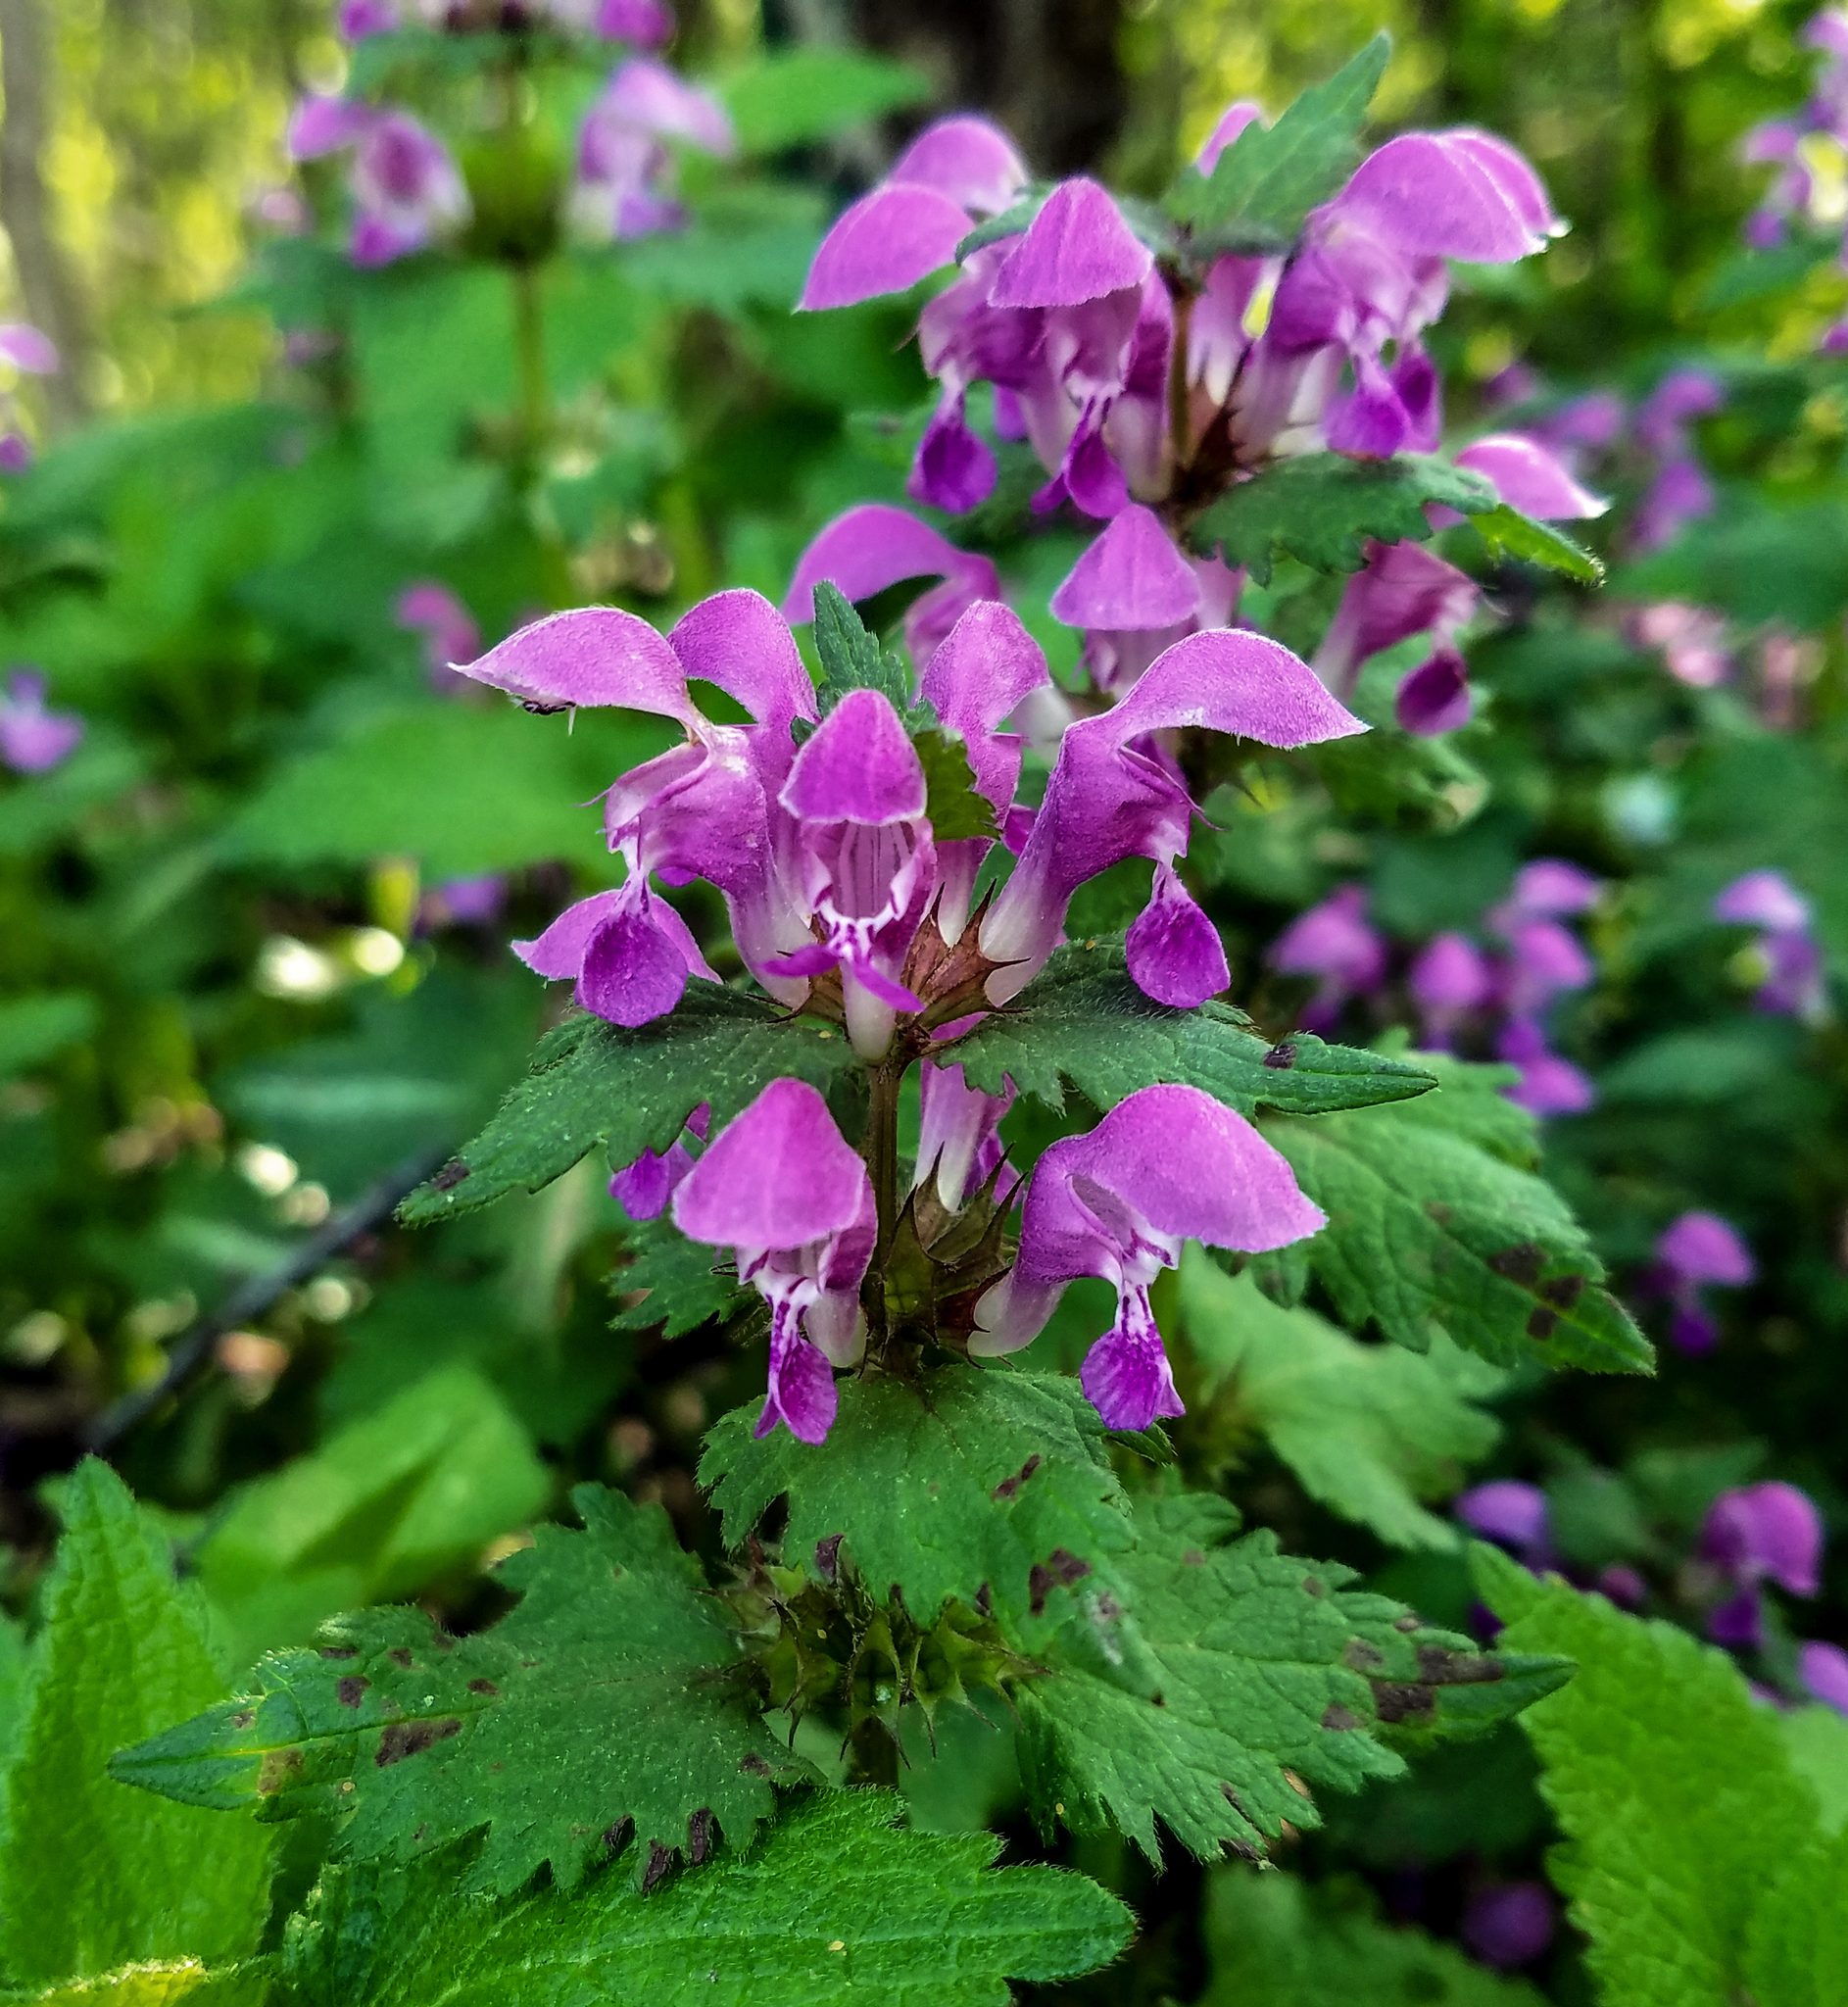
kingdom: Plantae
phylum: Tracheophyta
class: Magnoliopsida
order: Lamiales
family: Lamiaceae
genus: Lamium
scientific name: Lamium maculatum
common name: Spotted dead-nettle
